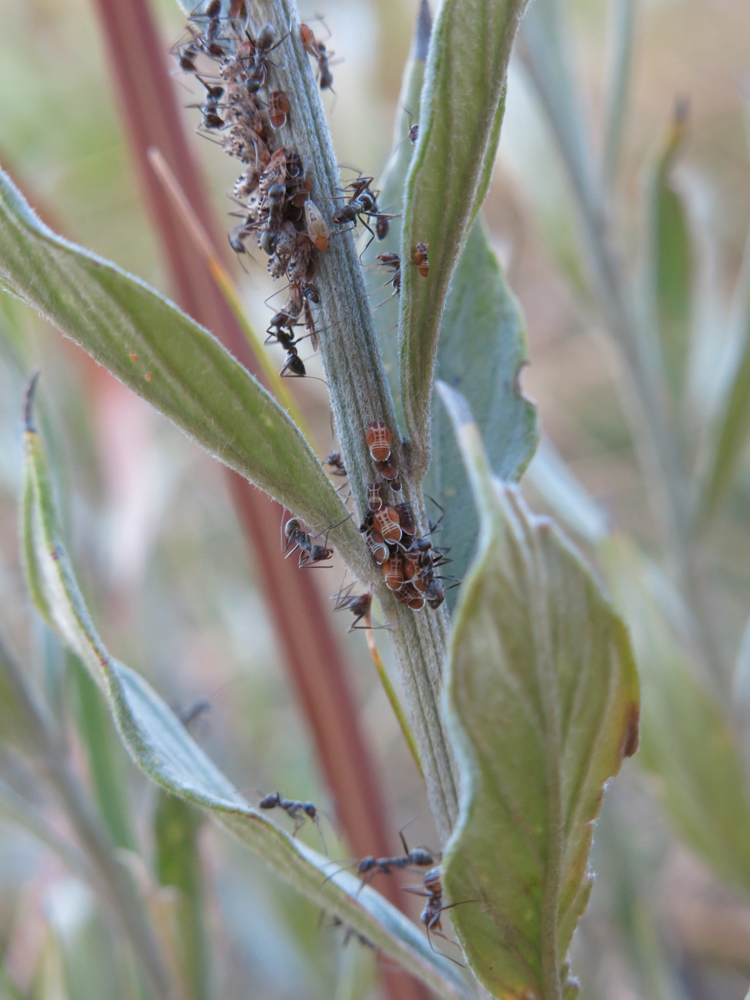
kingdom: Animalia
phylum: Arthropoda
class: Insecta
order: Hymenoptera
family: Formicidae
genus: Anoplolepis
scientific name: Anoplolepis custodiens
